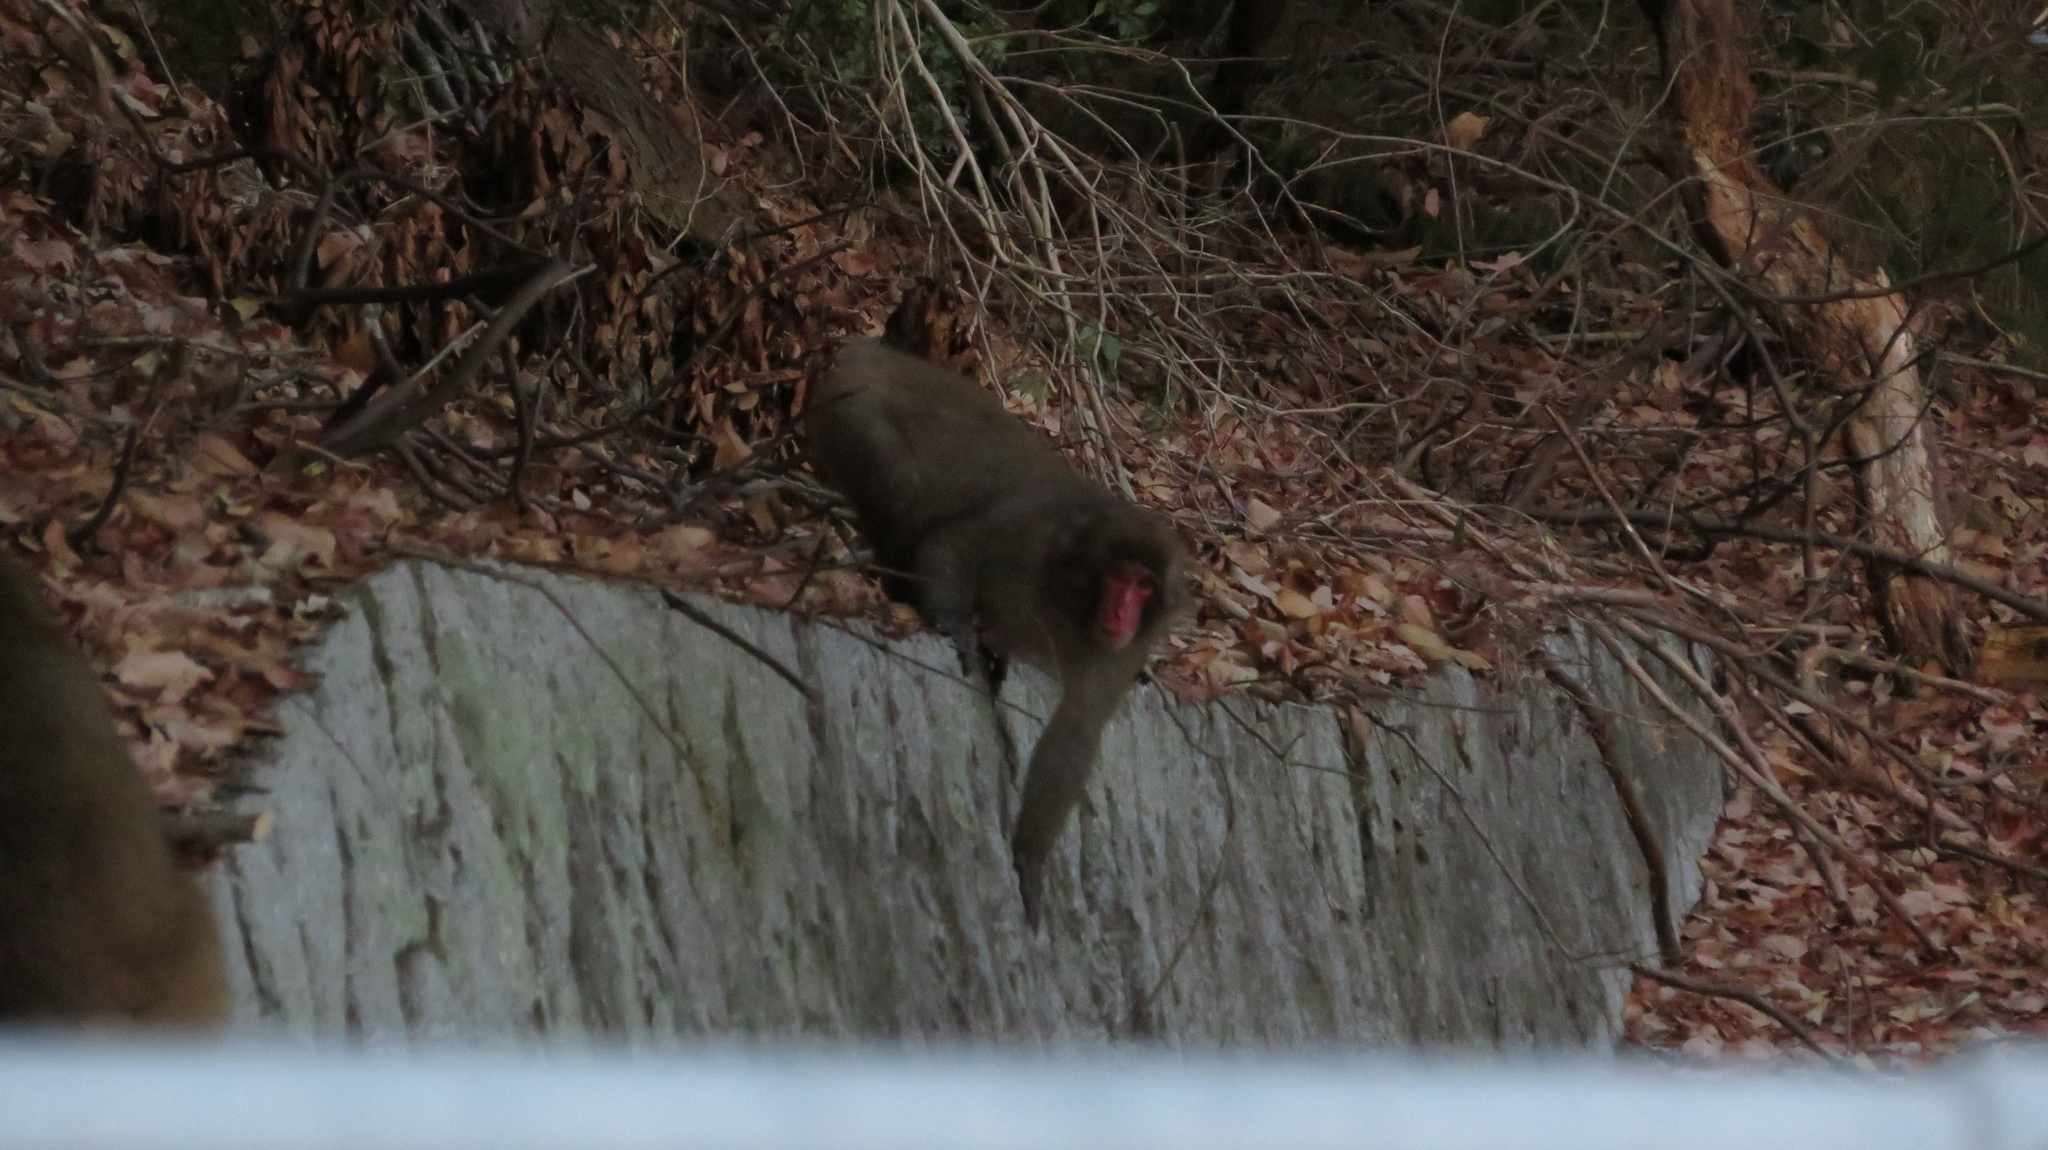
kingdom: Animalia
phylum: Chordata
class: Mammalia
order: Primates
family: Cercopithecidae
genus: Macaca
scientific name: Macaca fuscata
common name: Japanese macaque
